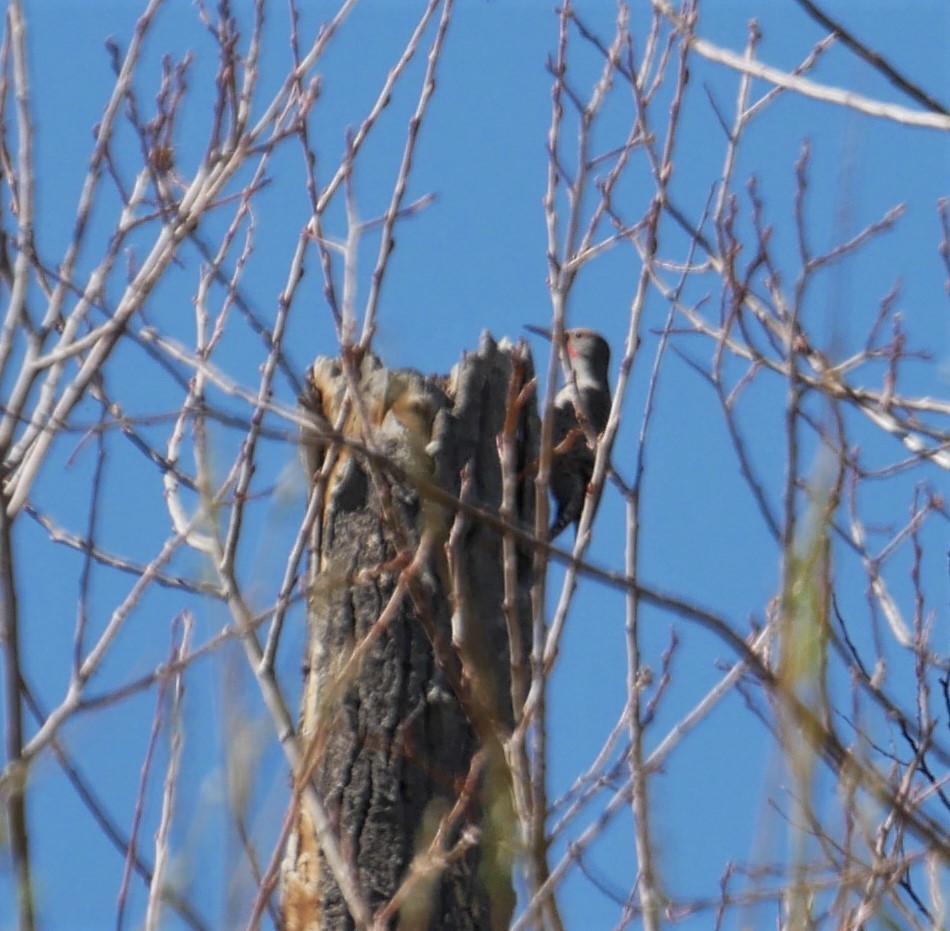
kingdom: Animalia
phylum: Chordata
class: Aves
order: Piciformes
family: Picidae
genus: Colaptes
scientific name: Colaptes auratus
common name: Northern flicker
